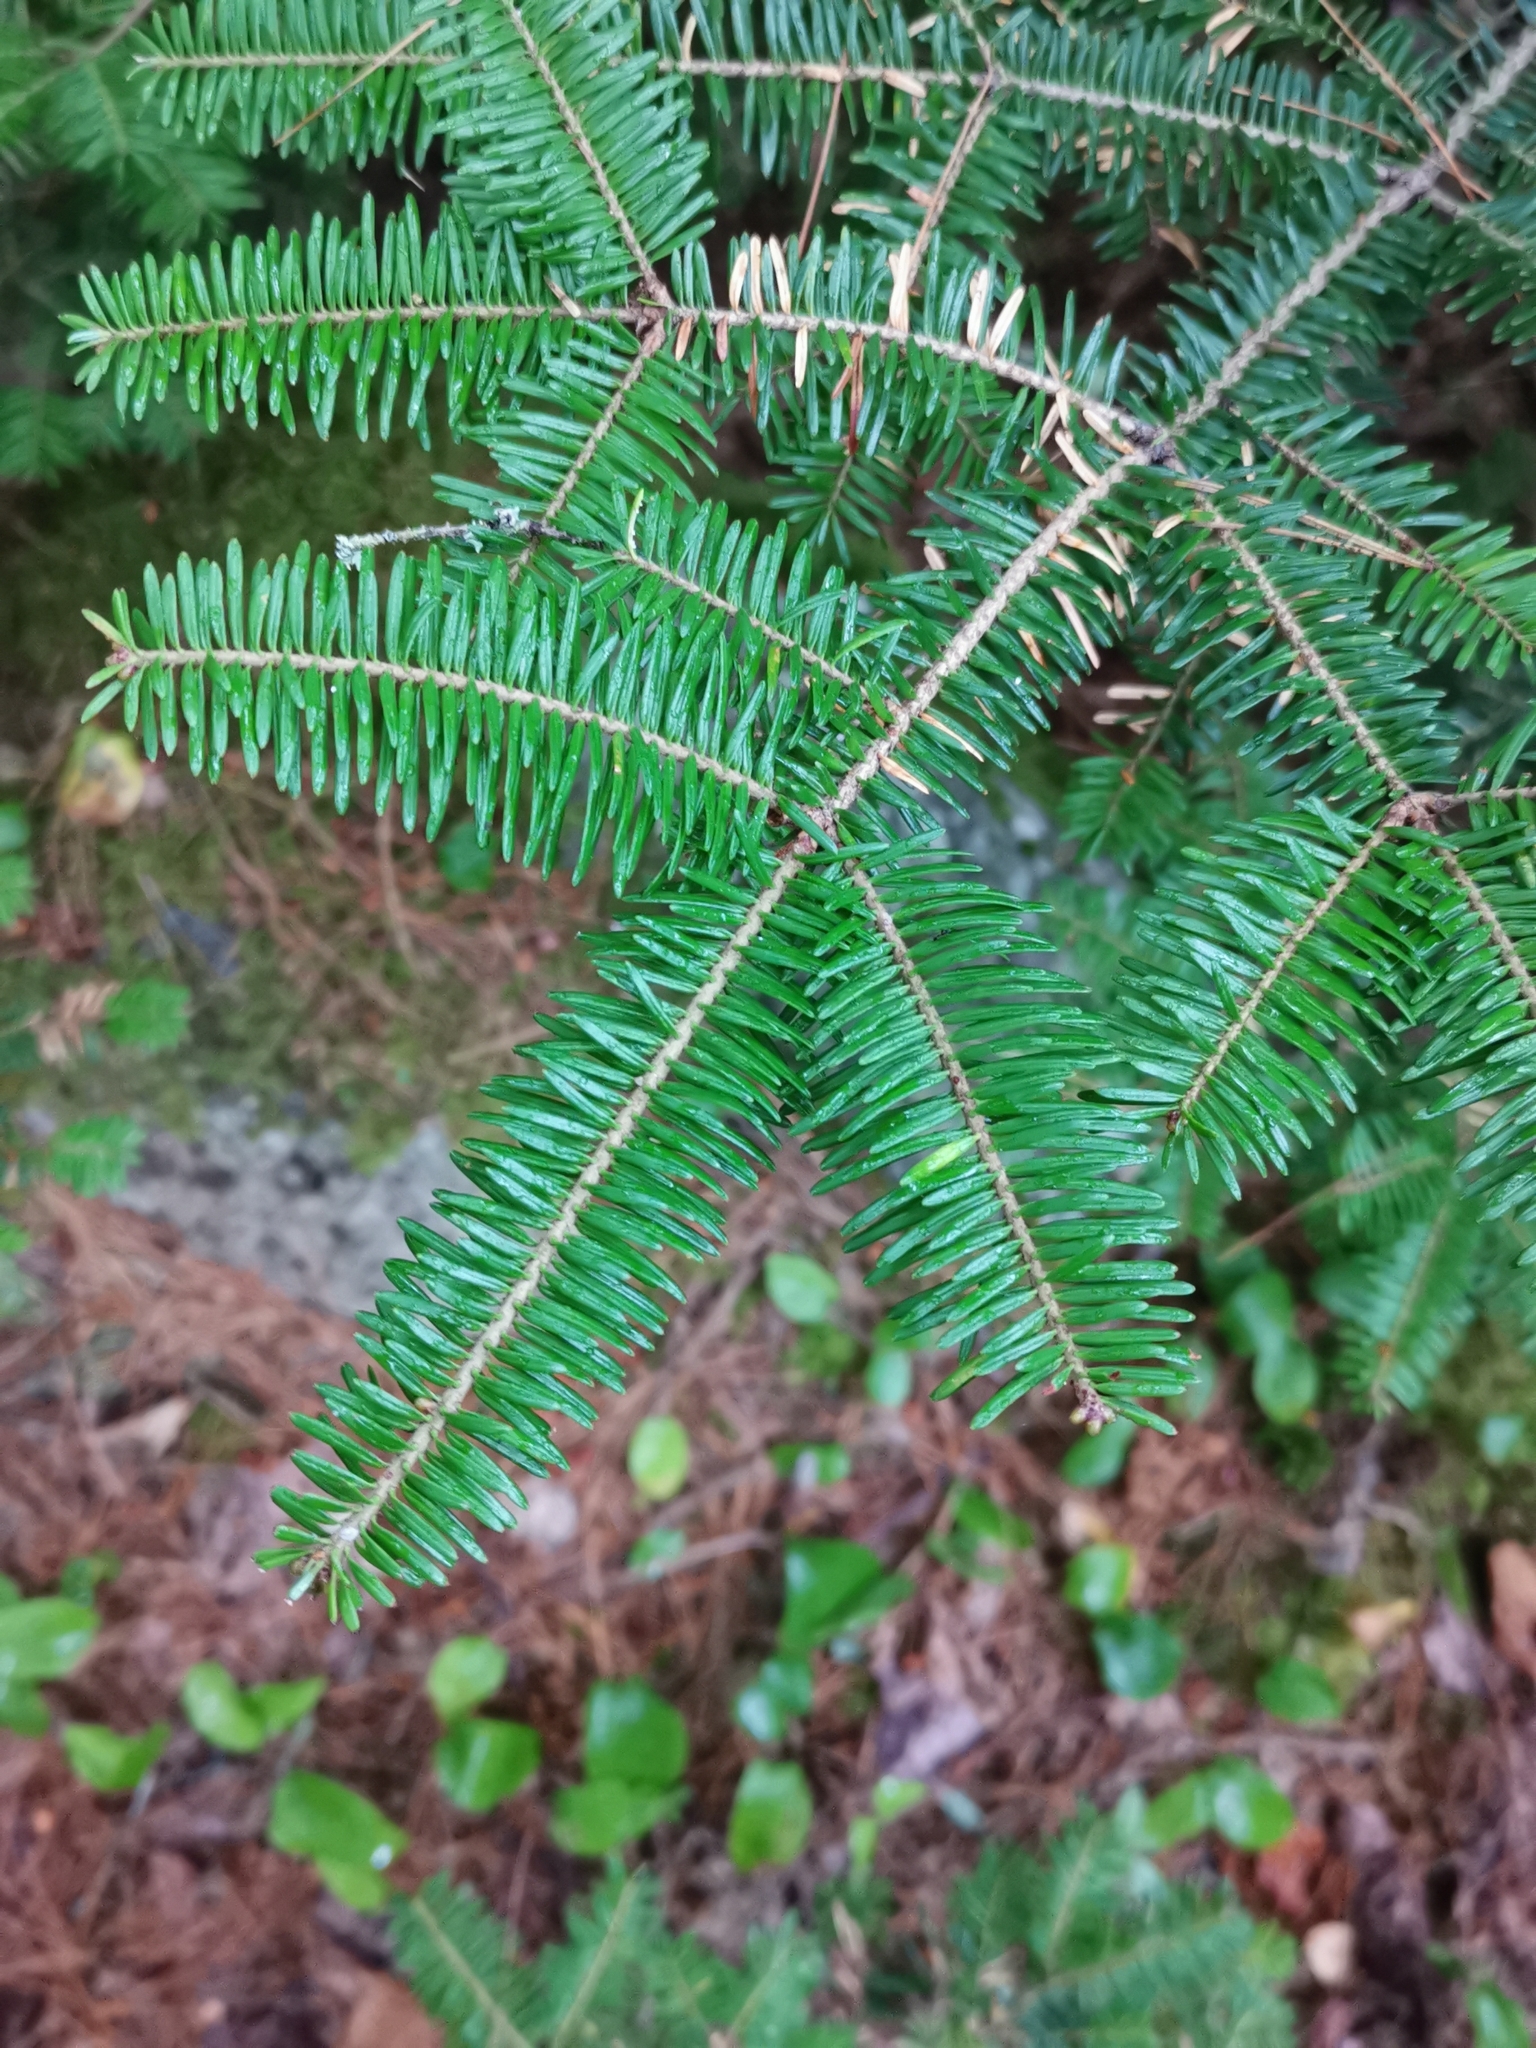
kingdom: Plantae
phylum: Tracheophyta
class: Pinopsida
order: Pinales
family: Pinaceae
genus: Abies
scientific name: Abies balsamea
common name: Balsam fir
